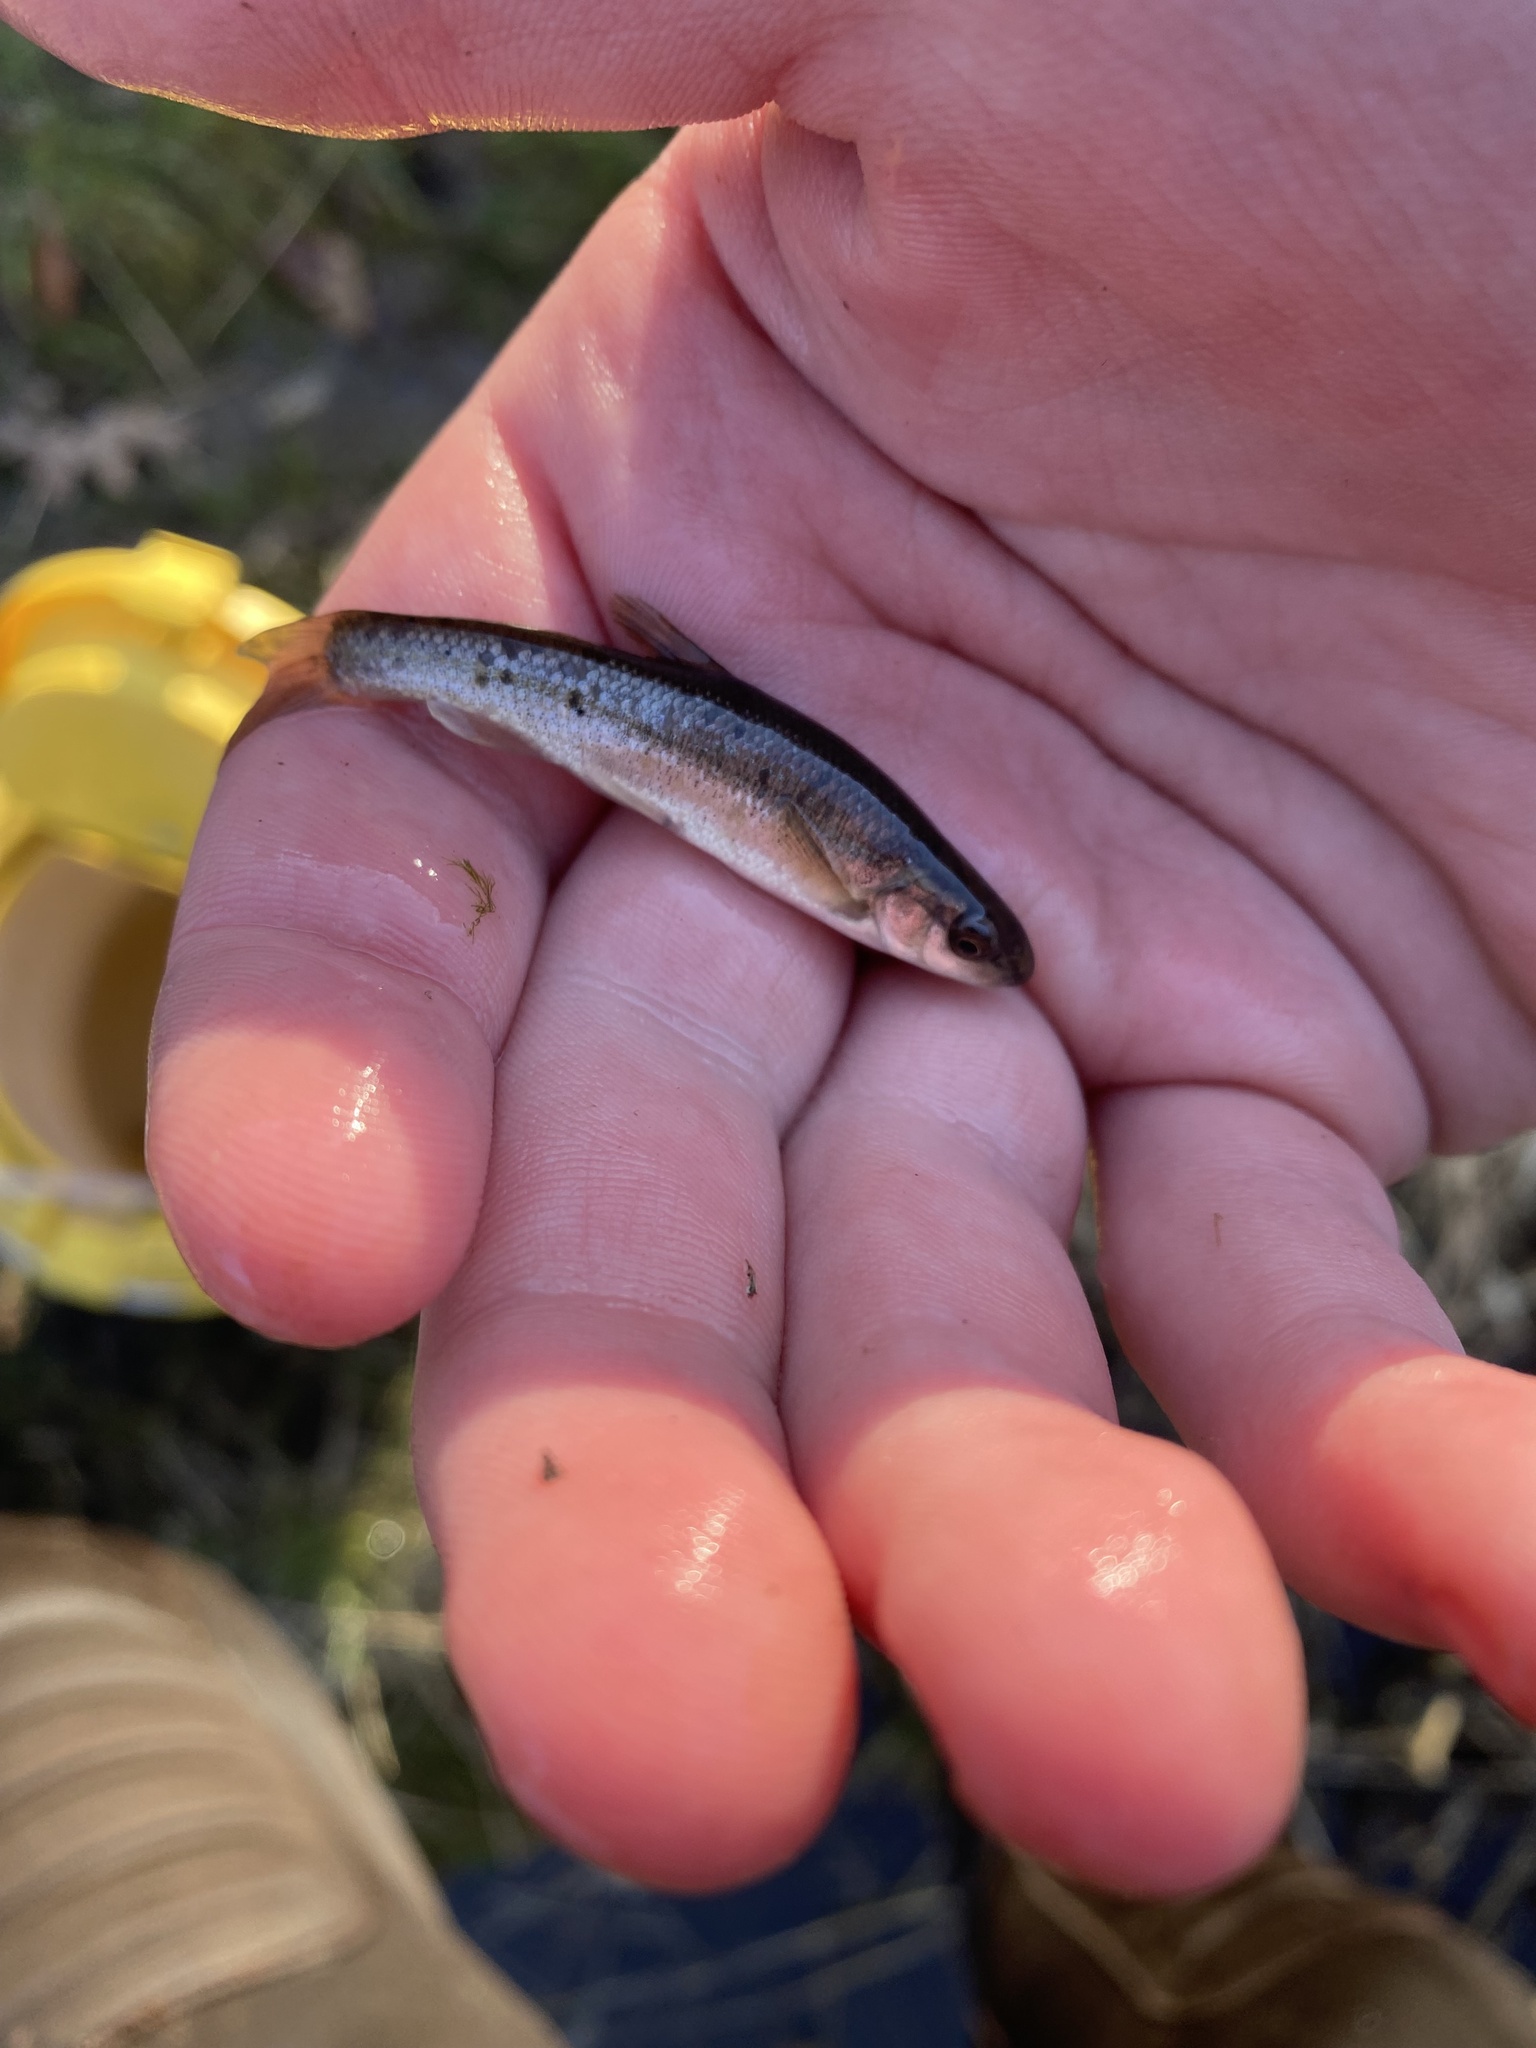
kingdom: Animalia
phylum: Chordata
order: Cypriniformes
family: Cyprinidae
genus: Campostoma
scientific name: Campostoma anomalum
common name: Central stoneroller
